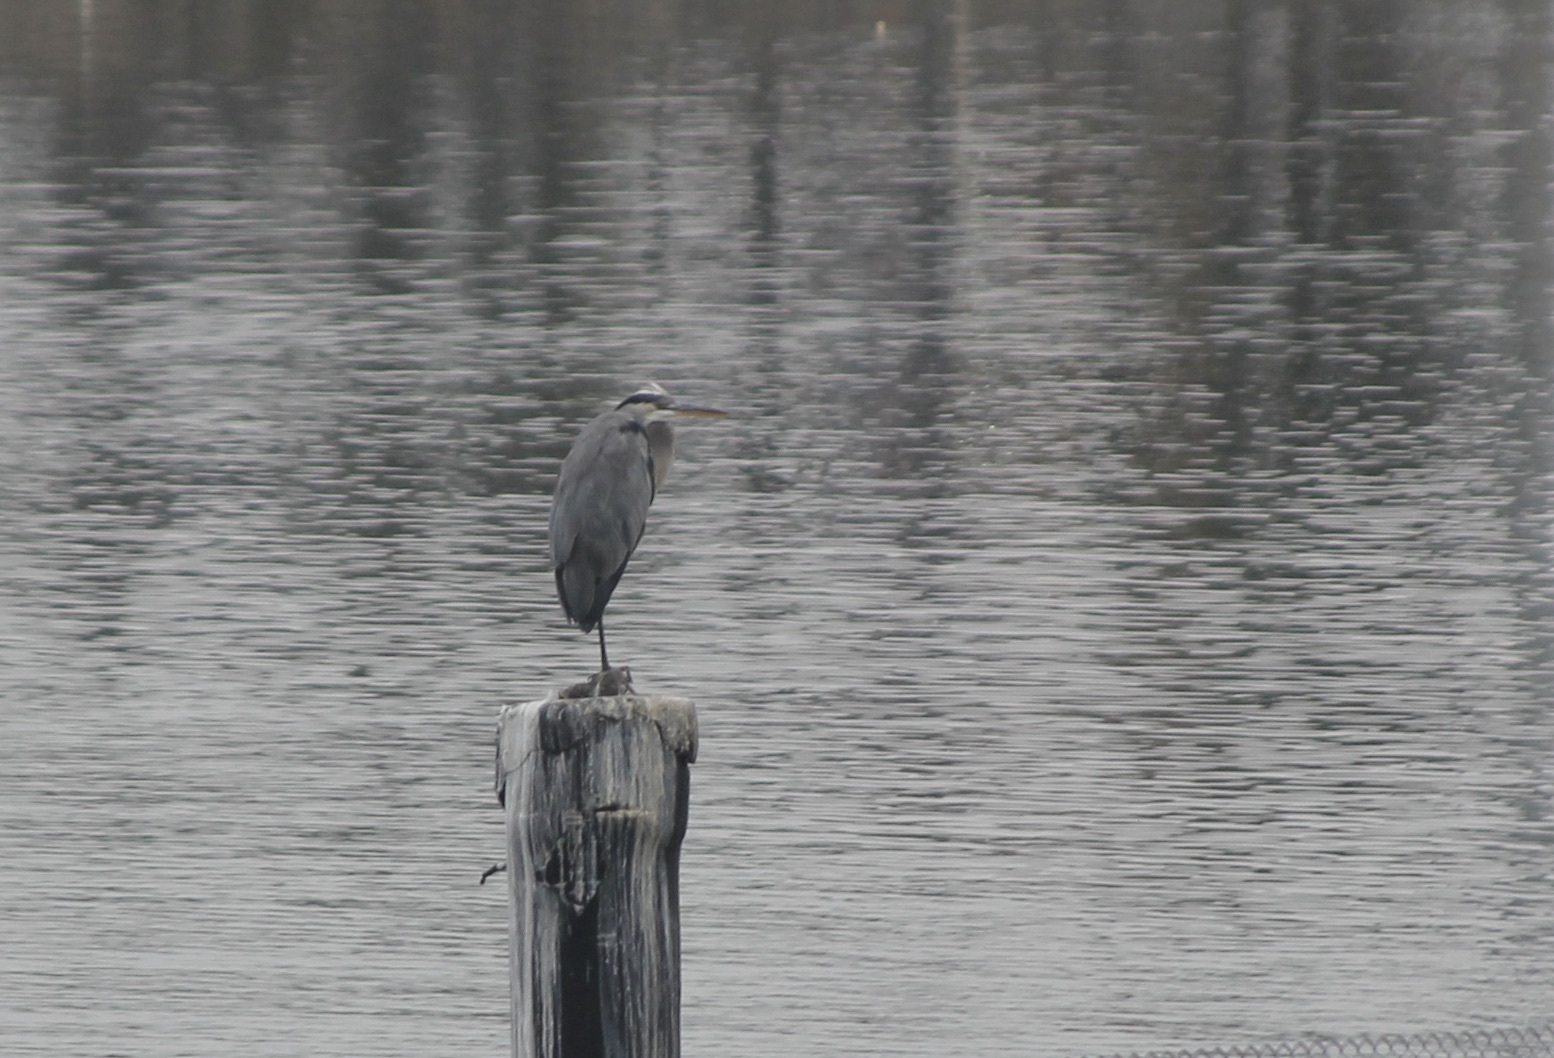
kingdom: Animalia
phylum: Chordata
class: Aves
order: Pelecaniformes
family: Ardeidae
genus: Ardea
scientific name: Ardea herodias
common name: Great blue heron
